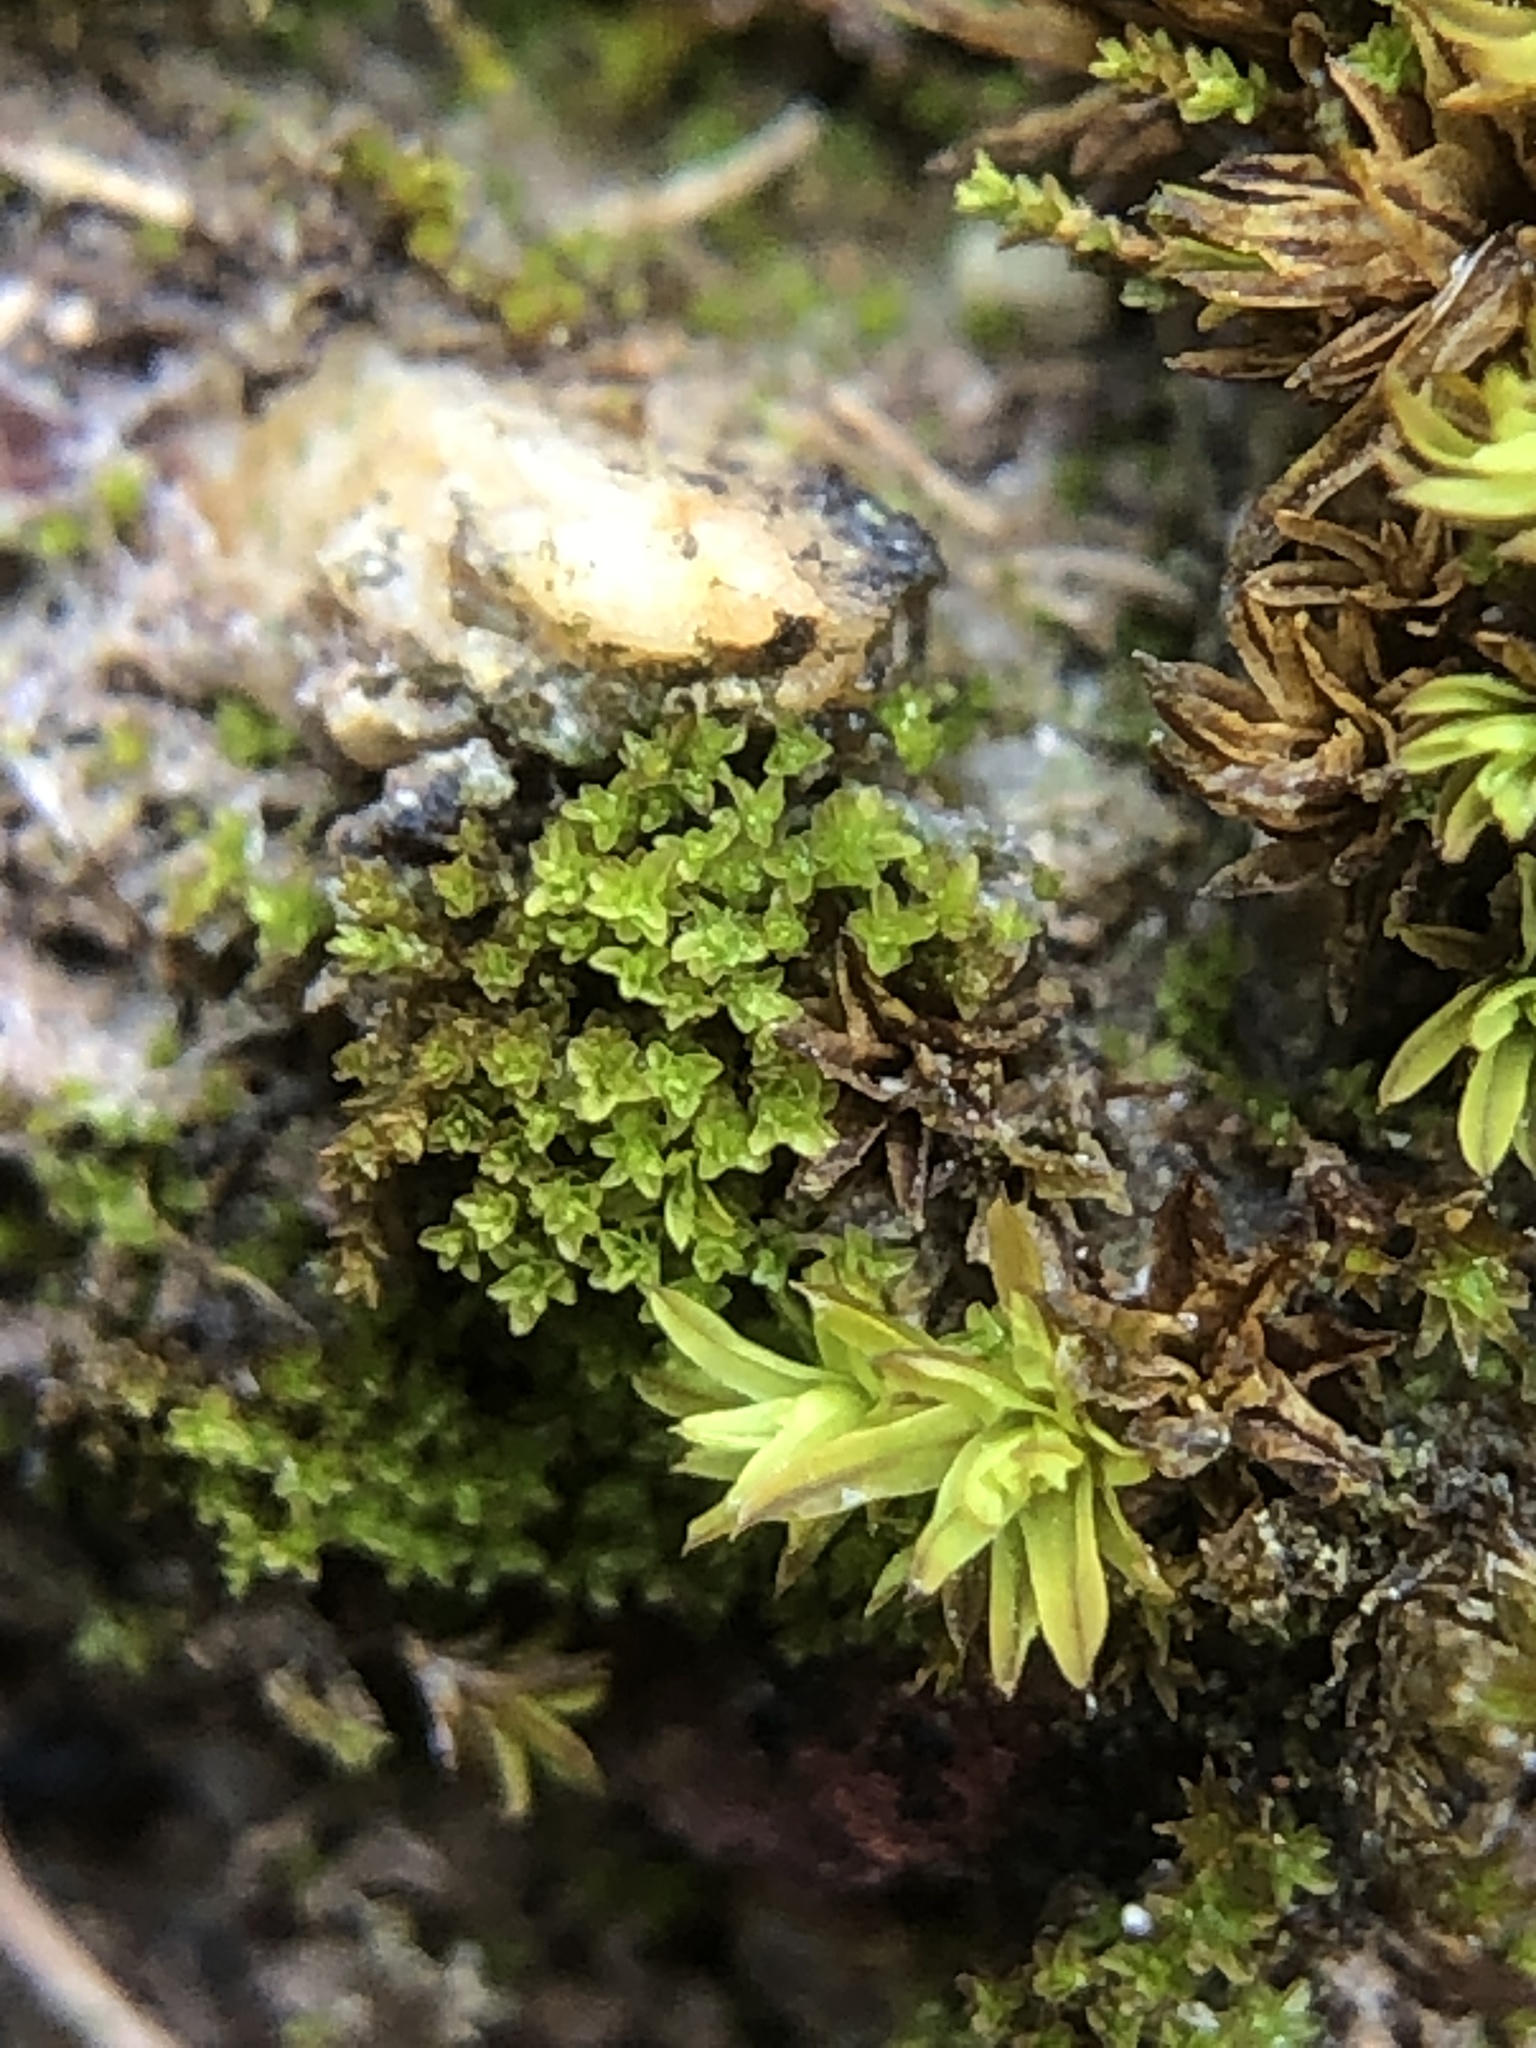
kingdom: Plantae
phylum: Bryophyta
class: Bryopsida
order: Pottiales
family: Pottiaceae
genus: Gymnostomum
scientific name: Gymnostomum viridulum
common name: Luisier's tufa-moss
